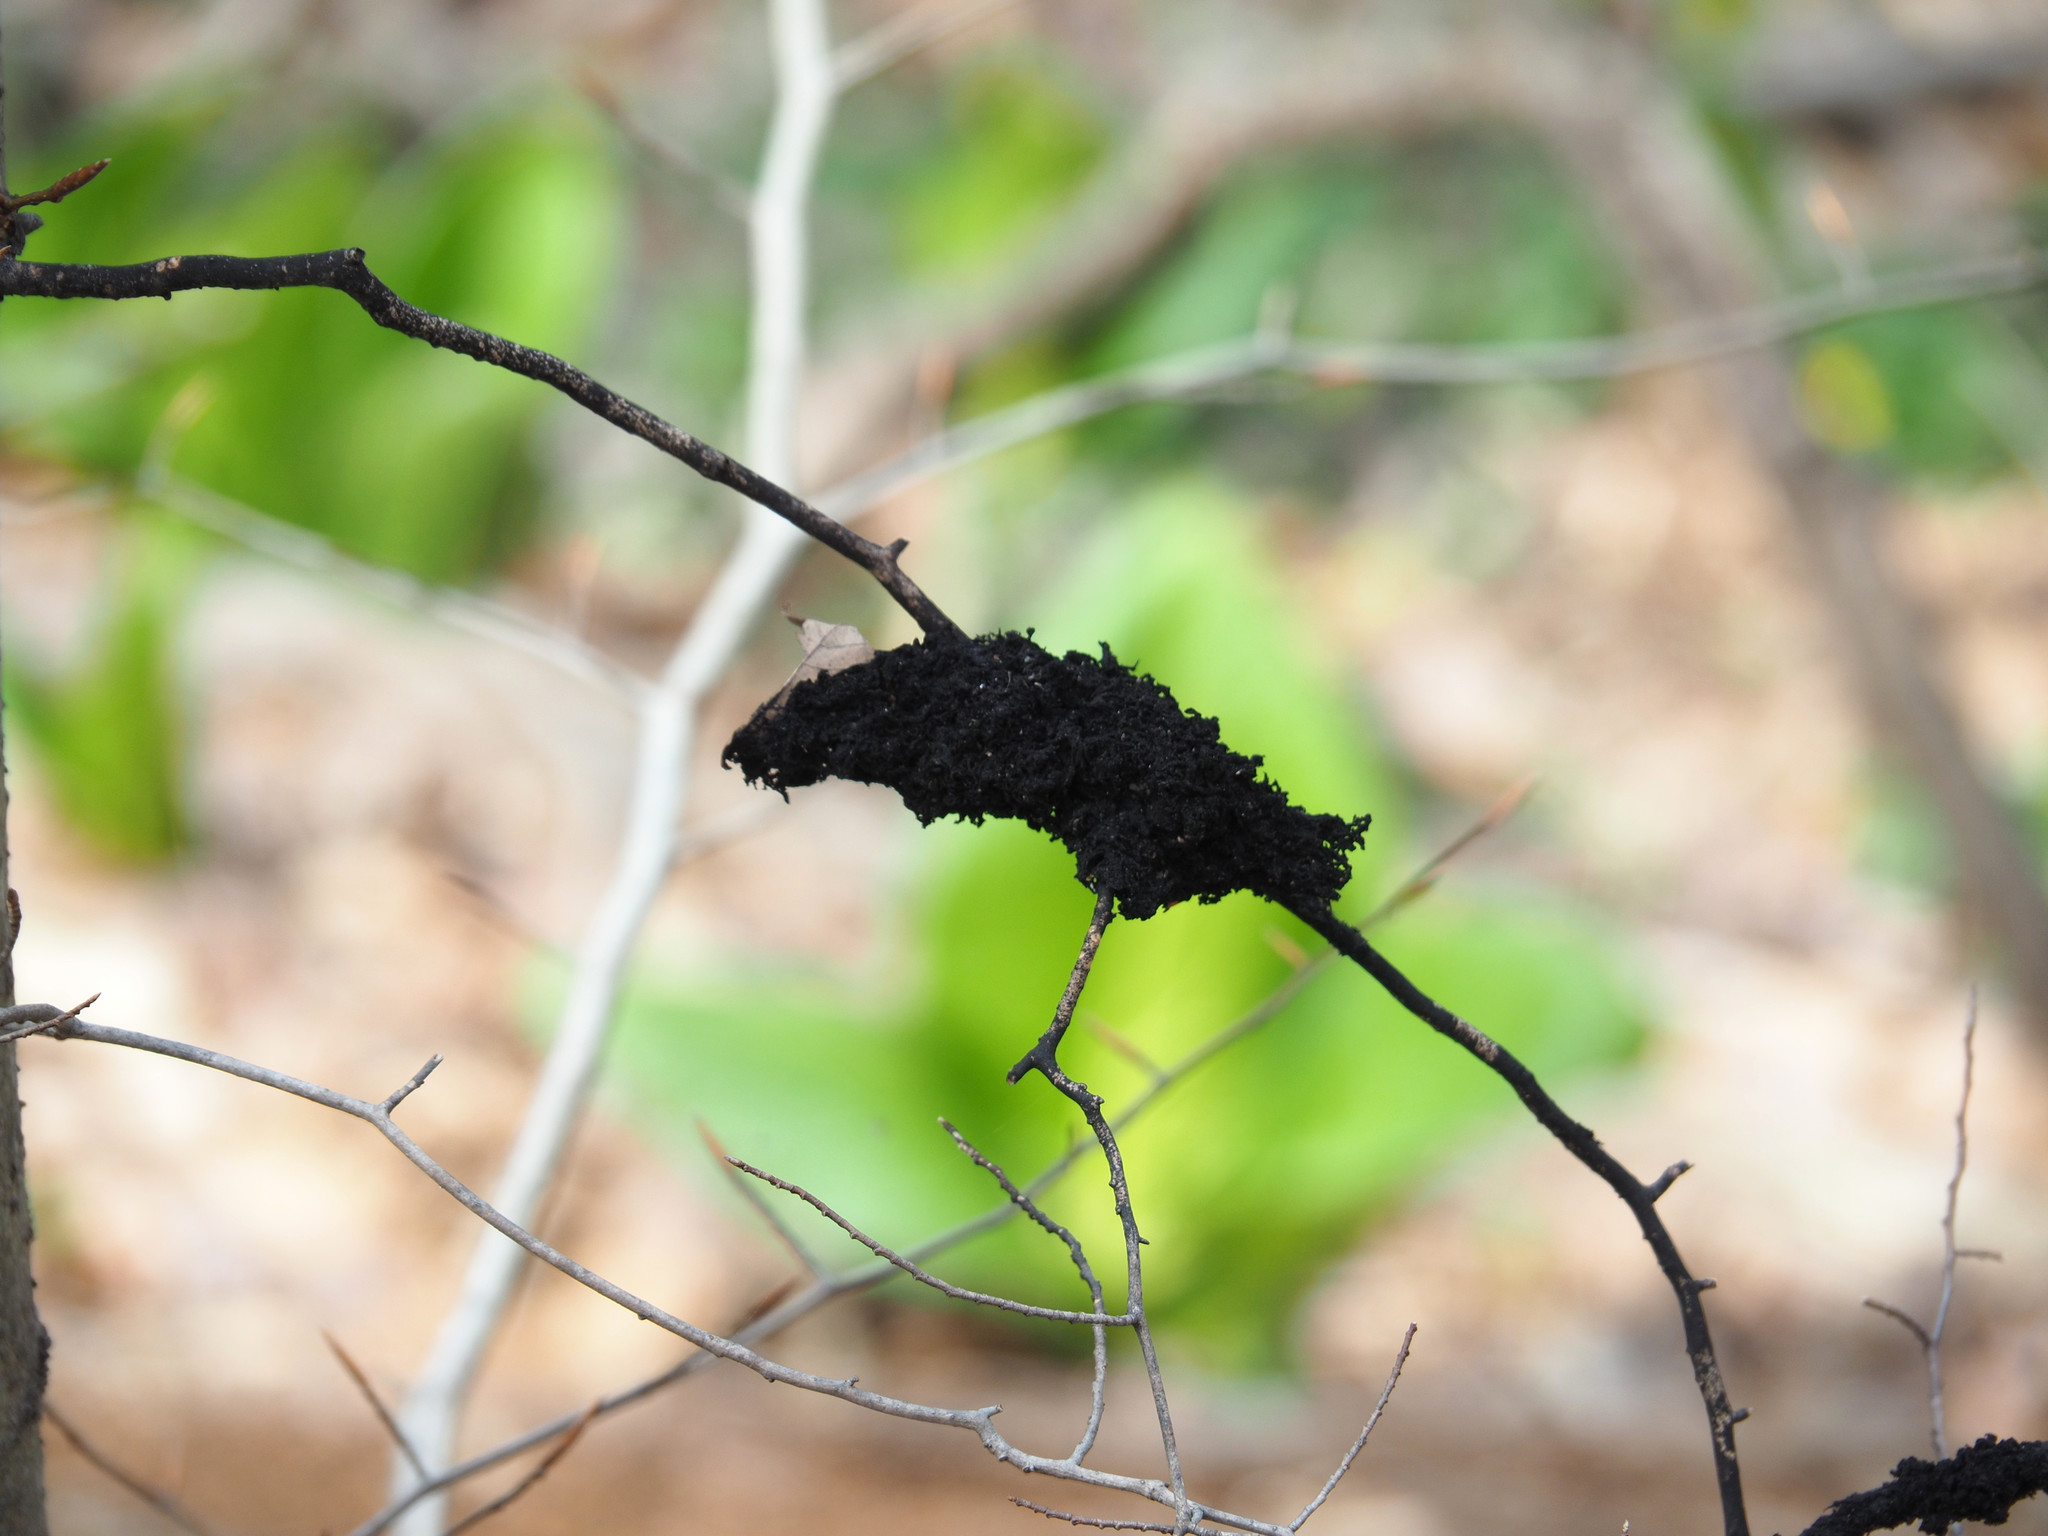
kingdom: Fungi
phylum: Ascomycota
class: Dothideomycetes
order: Capnodiales
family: Capnodiaceae
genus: Scorias
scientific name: Scorias spongiosa
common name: Black sooty mold
